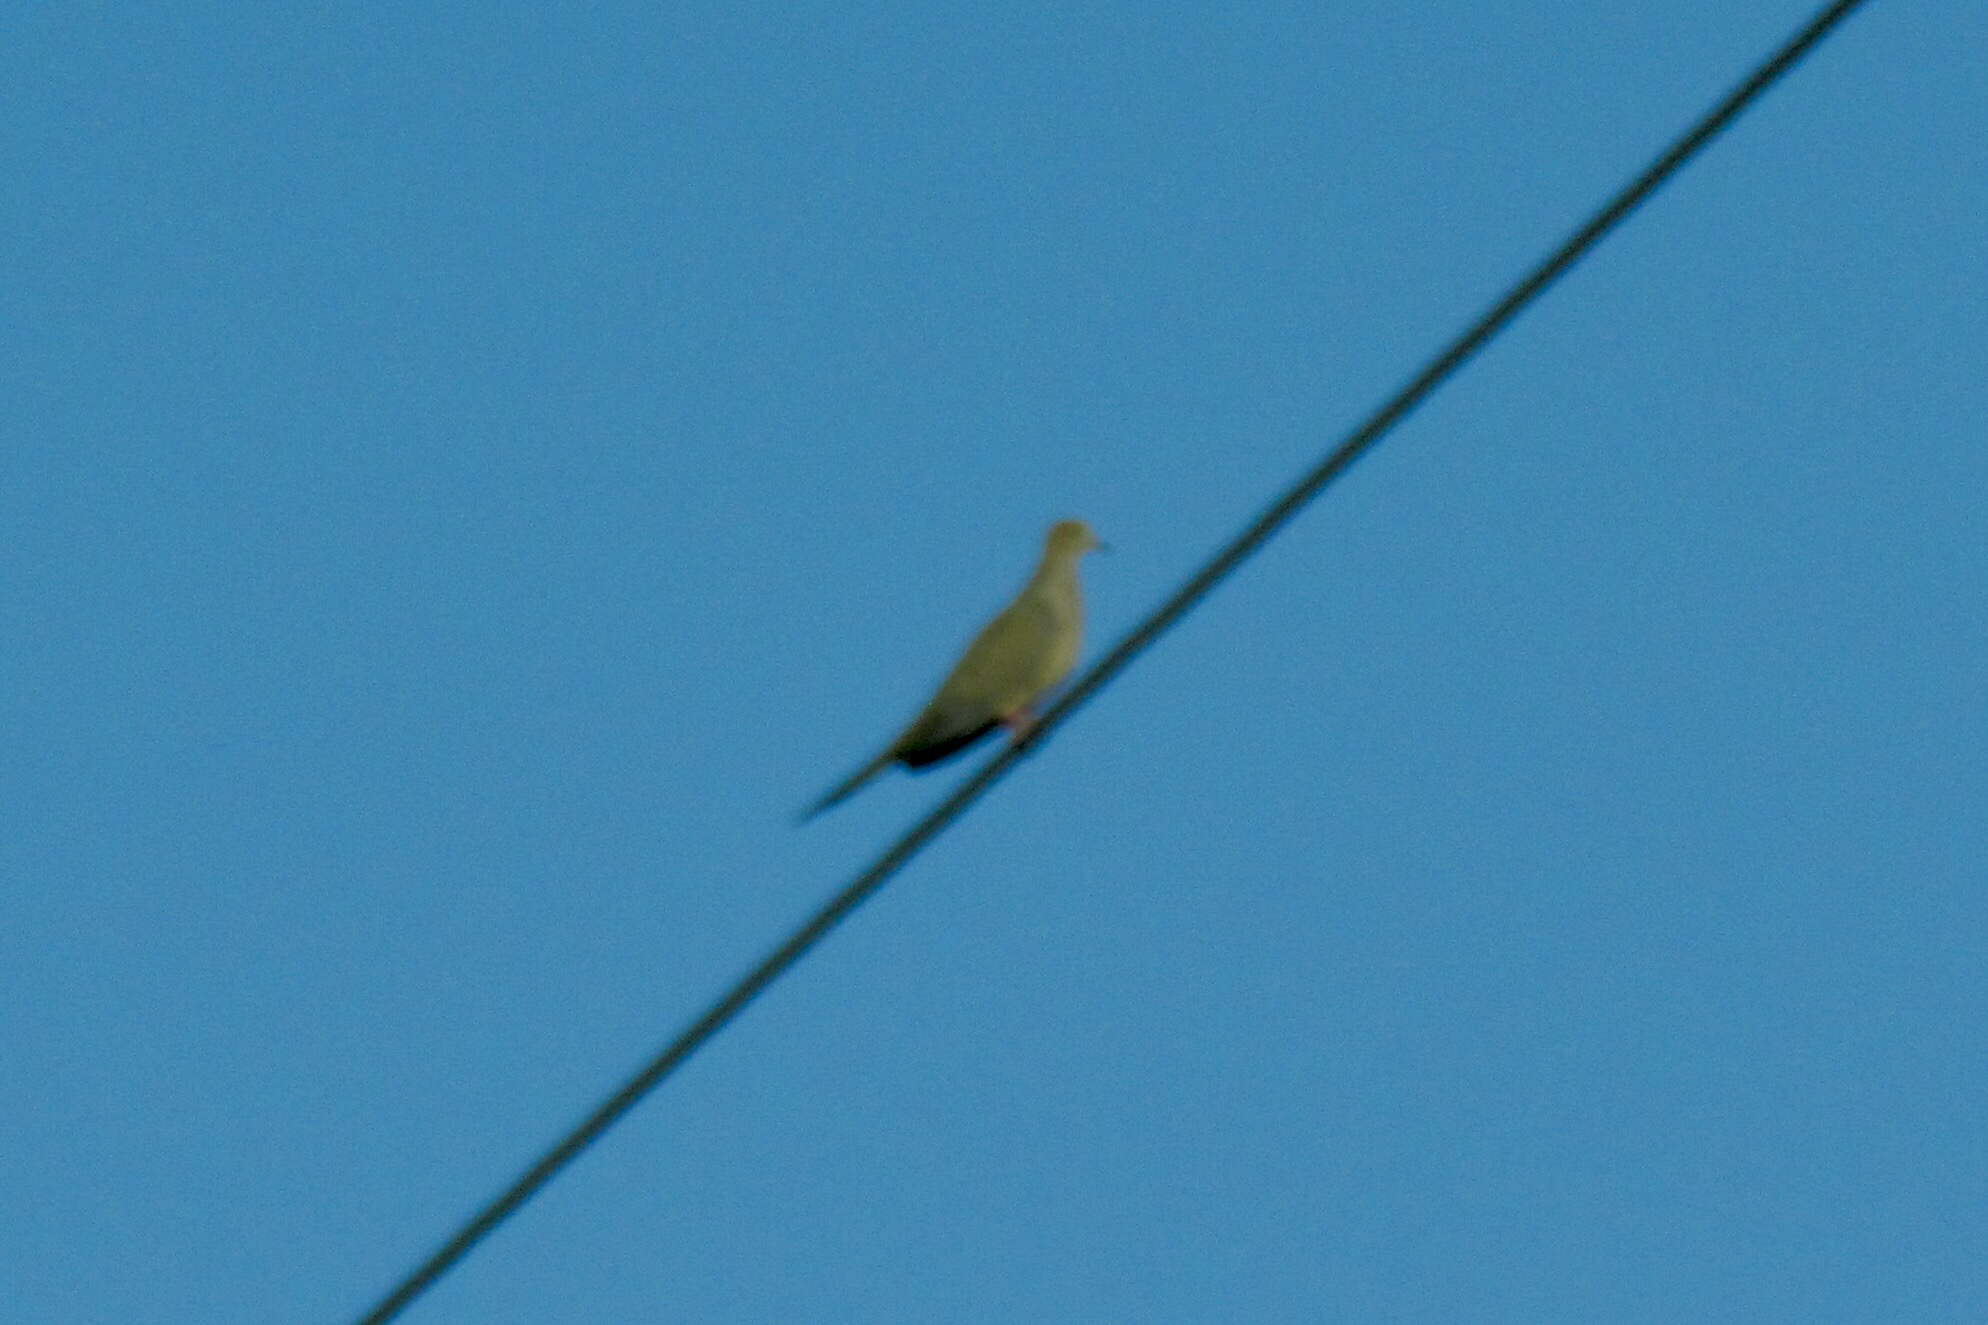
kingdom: Animalia
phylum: Chordata
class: Aves
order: Columbiformes
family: Columbidae
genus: Zenaida
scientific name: Zenaida macroura
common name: Mourning dove
